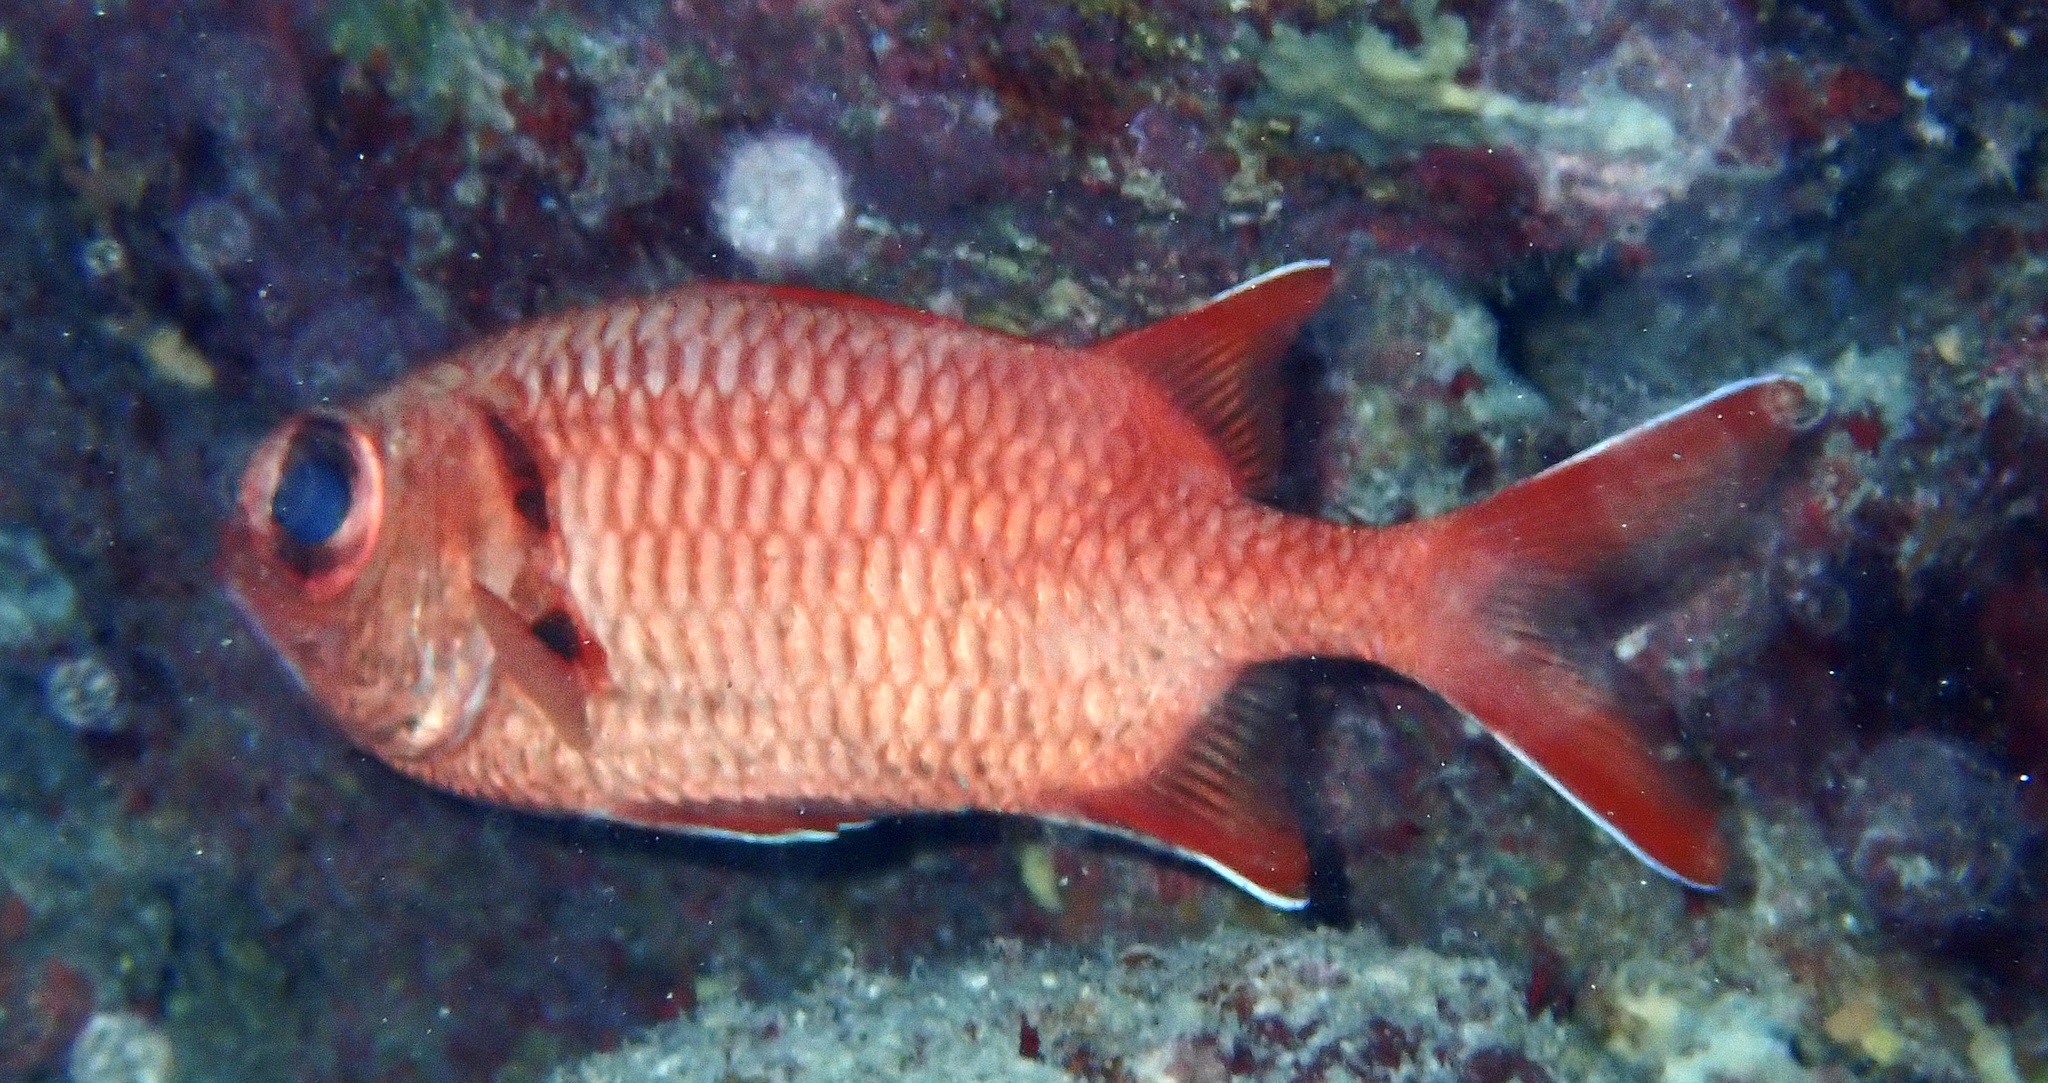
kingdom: Animalia
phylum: Chordata
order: Beryciformes
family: Holocentridae
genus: Myripristis
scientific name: Myripristis murdjan
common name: Big-eye soldierfish
